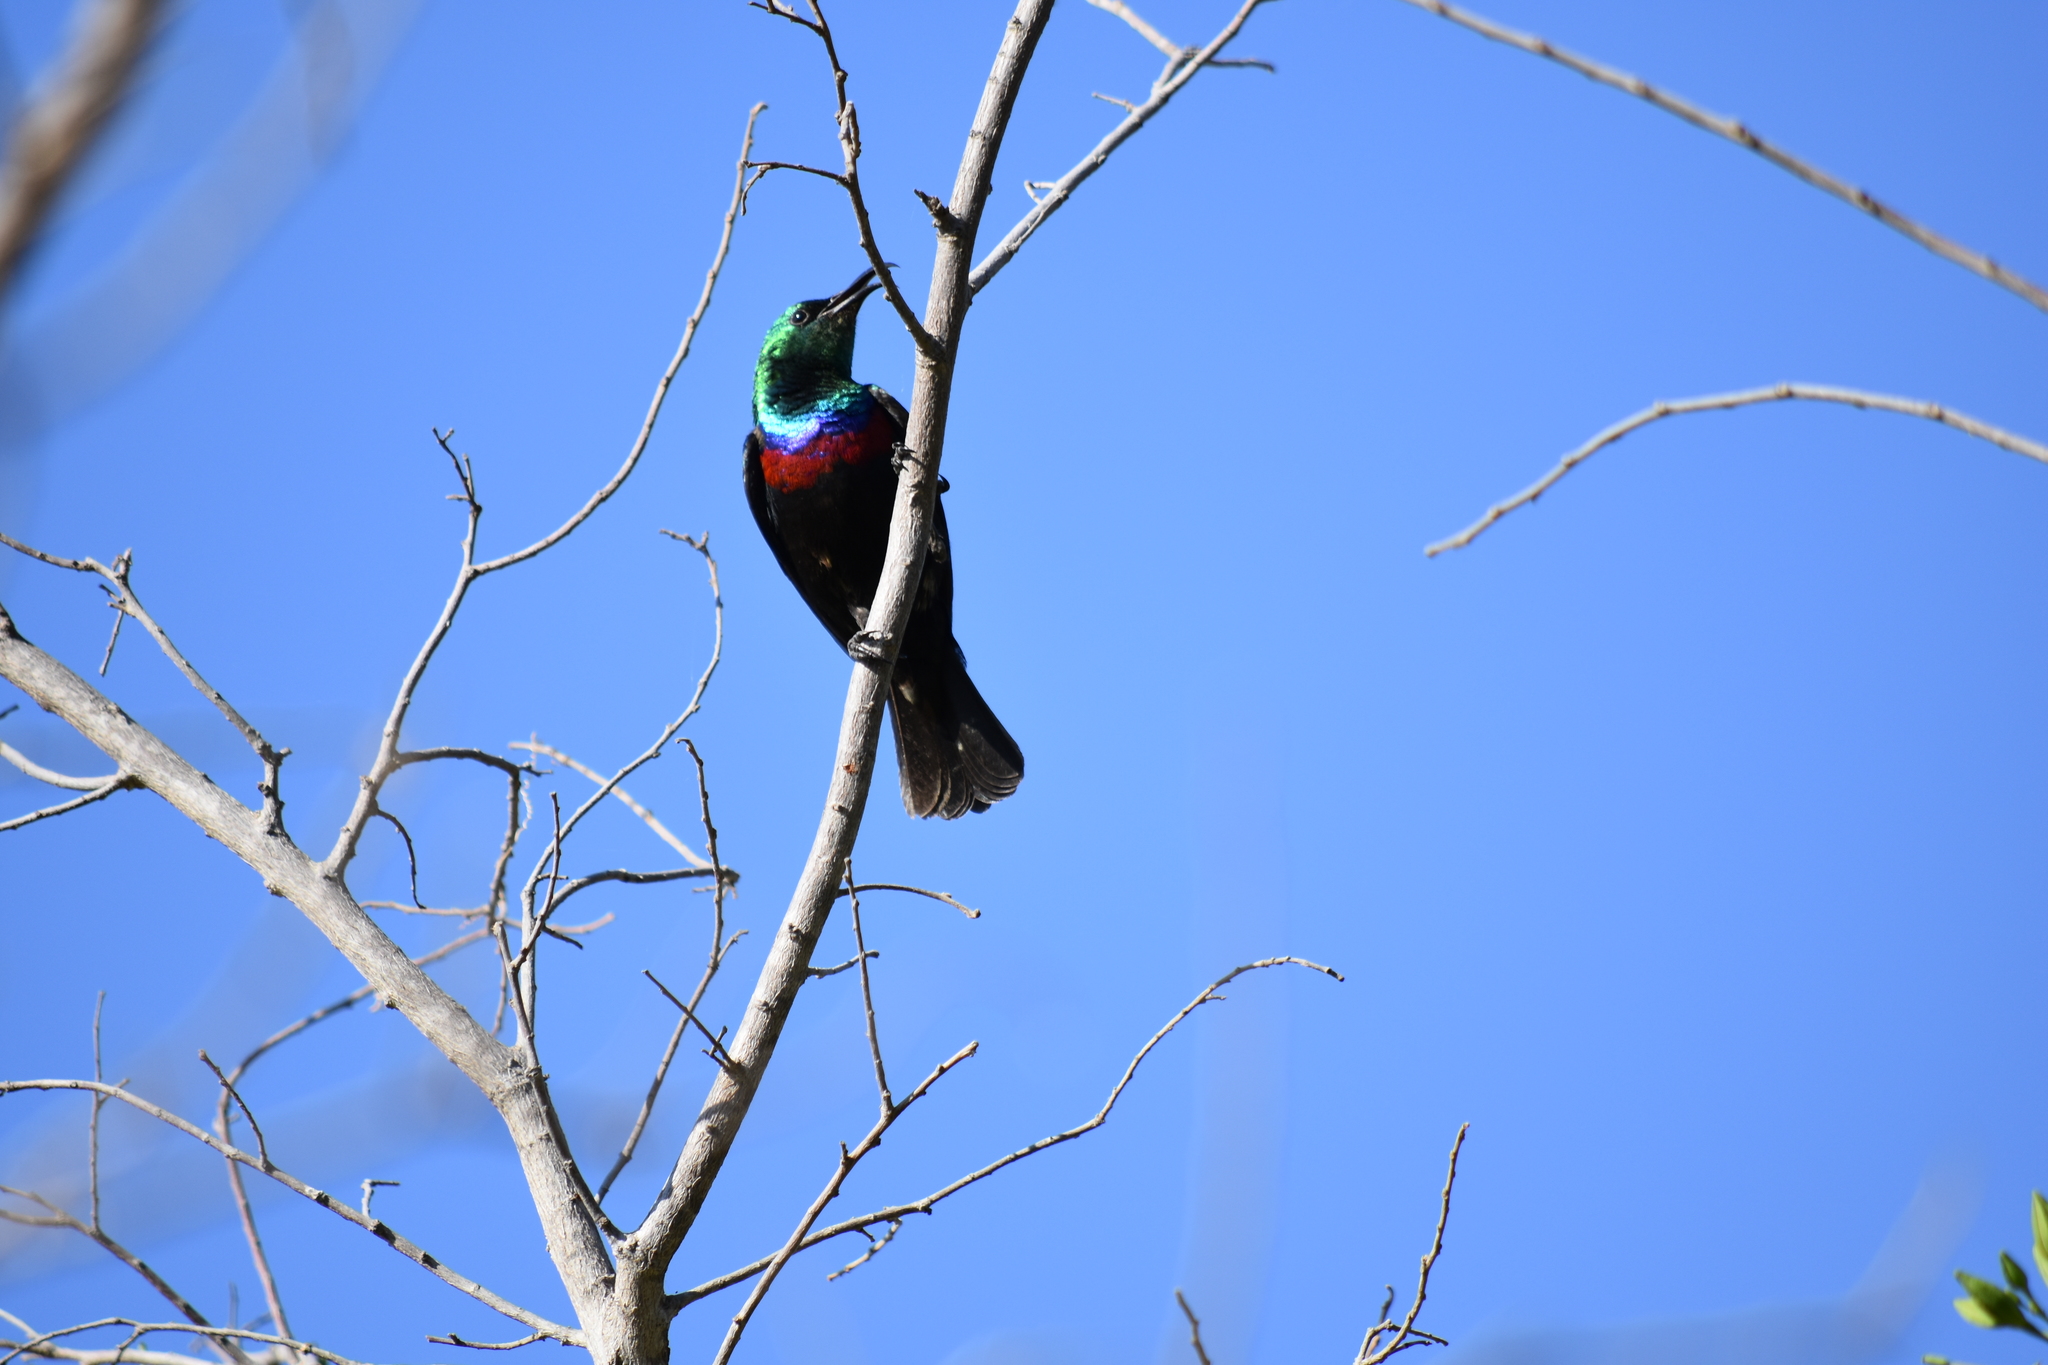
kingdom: Animalia
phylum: Chordata
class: Aves
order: Passeriformes
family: Nectariniidae
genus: Cinnyris
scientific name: Cinnyris mariquensis
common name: Marico sunbird
